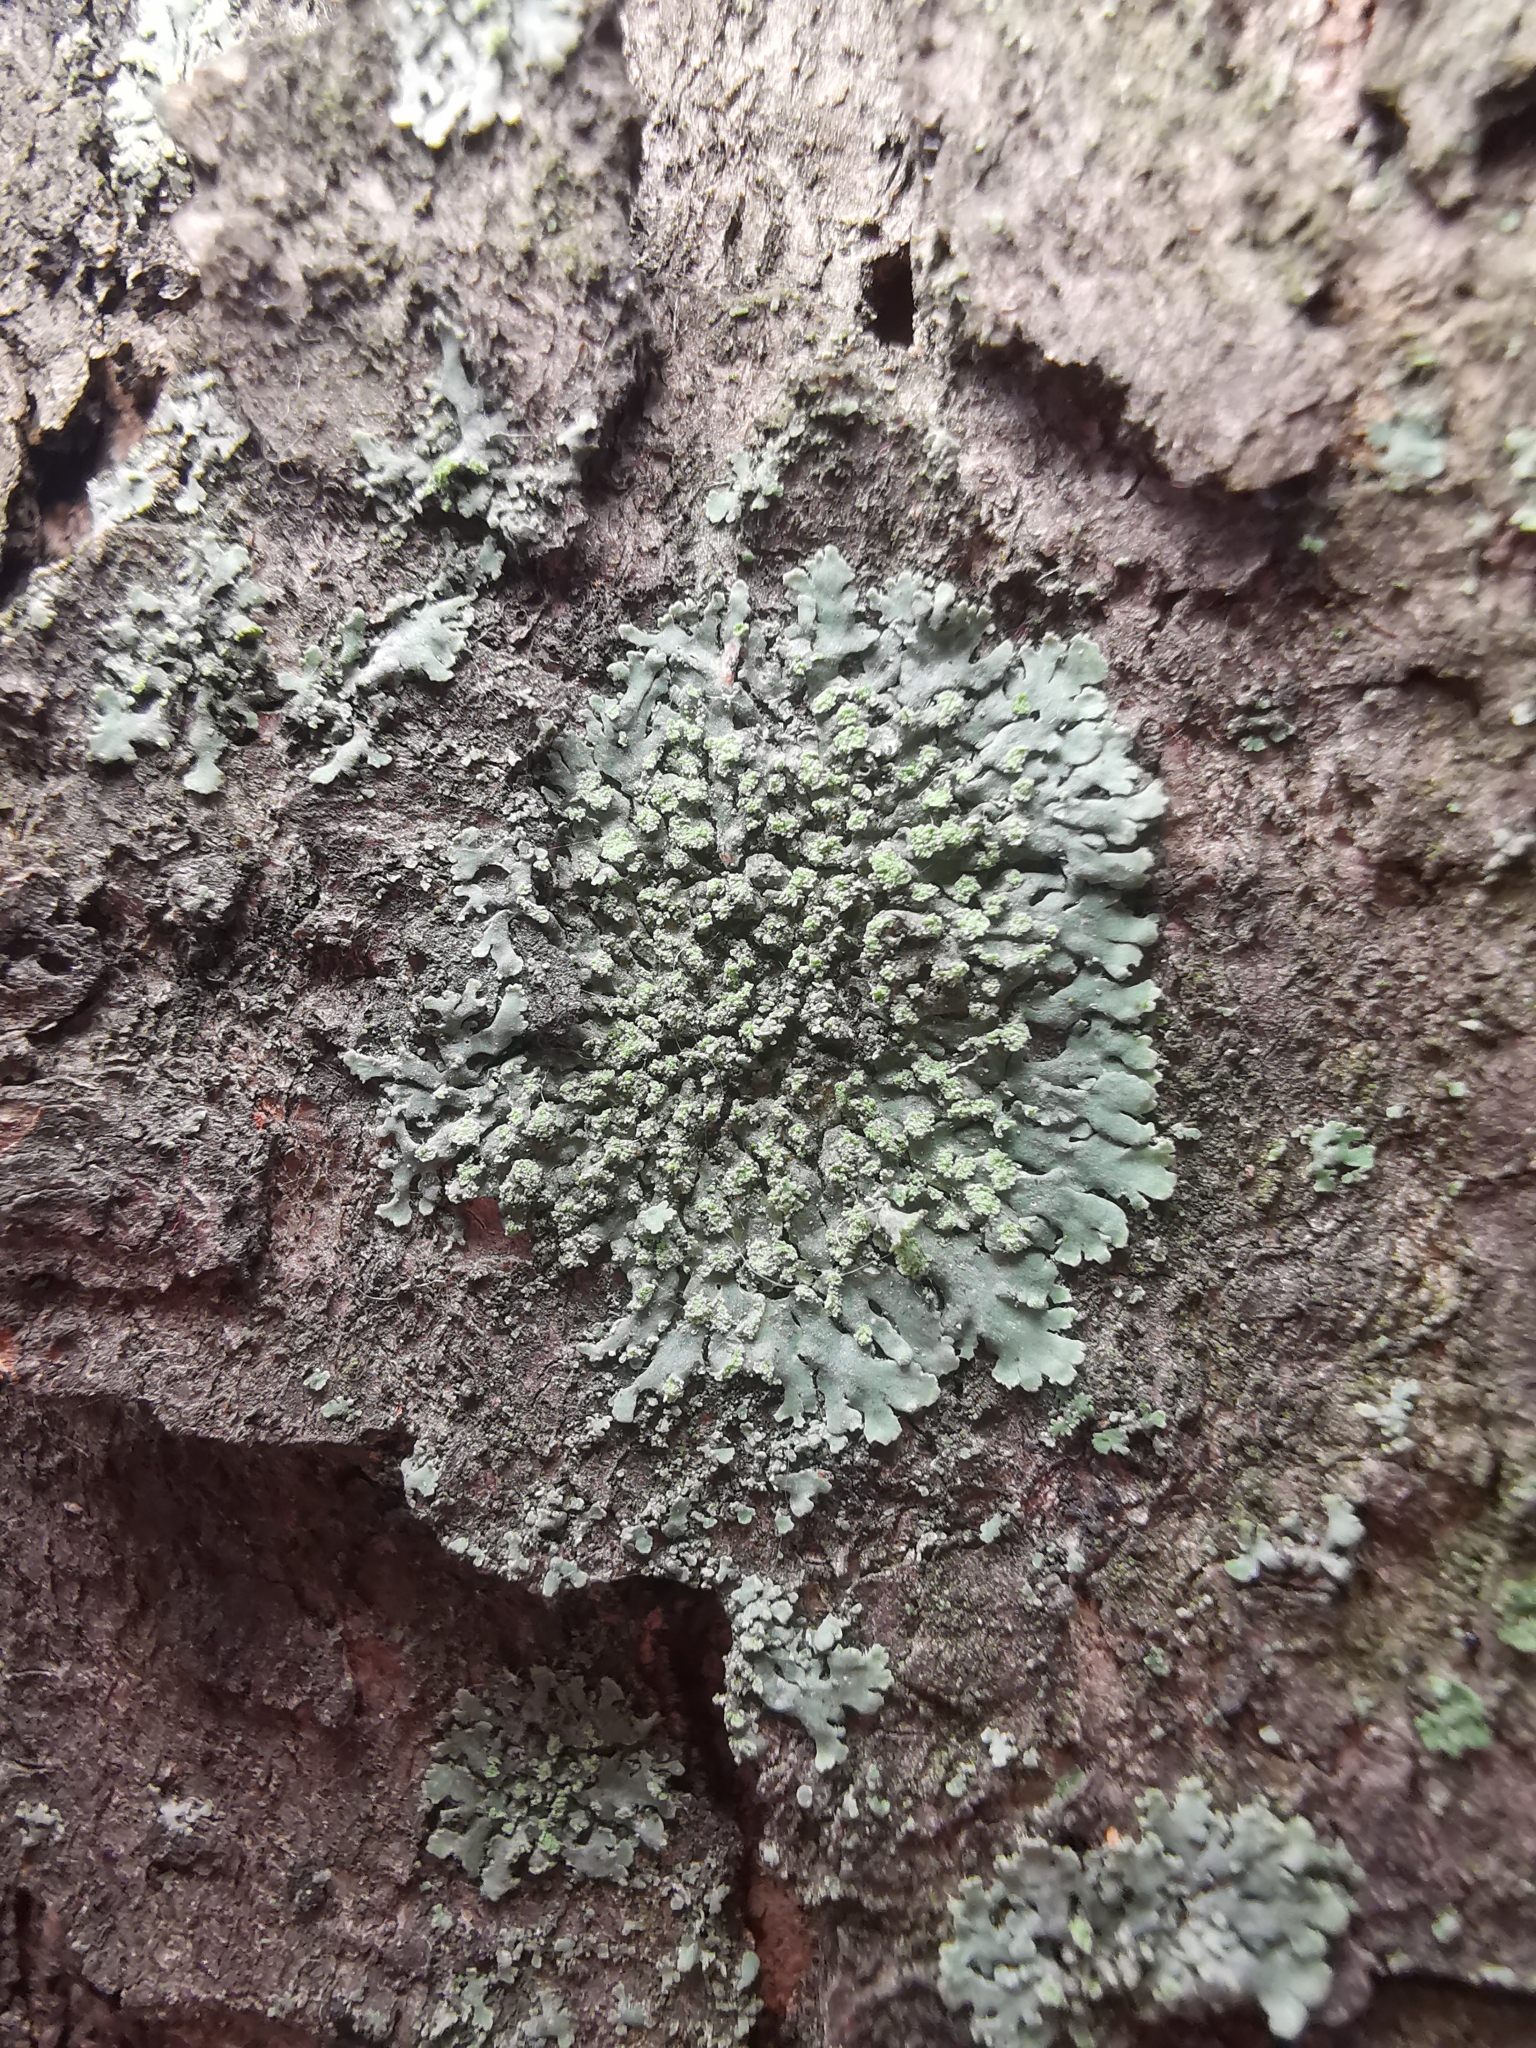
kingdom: Fungi
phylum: Ascomycota
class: Lecanoromycetes
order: Caliciales
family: Physciaceae
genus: Phaeophyscia
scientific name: Phaeophyscia orbicularis
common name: Mealy shadow lichen
